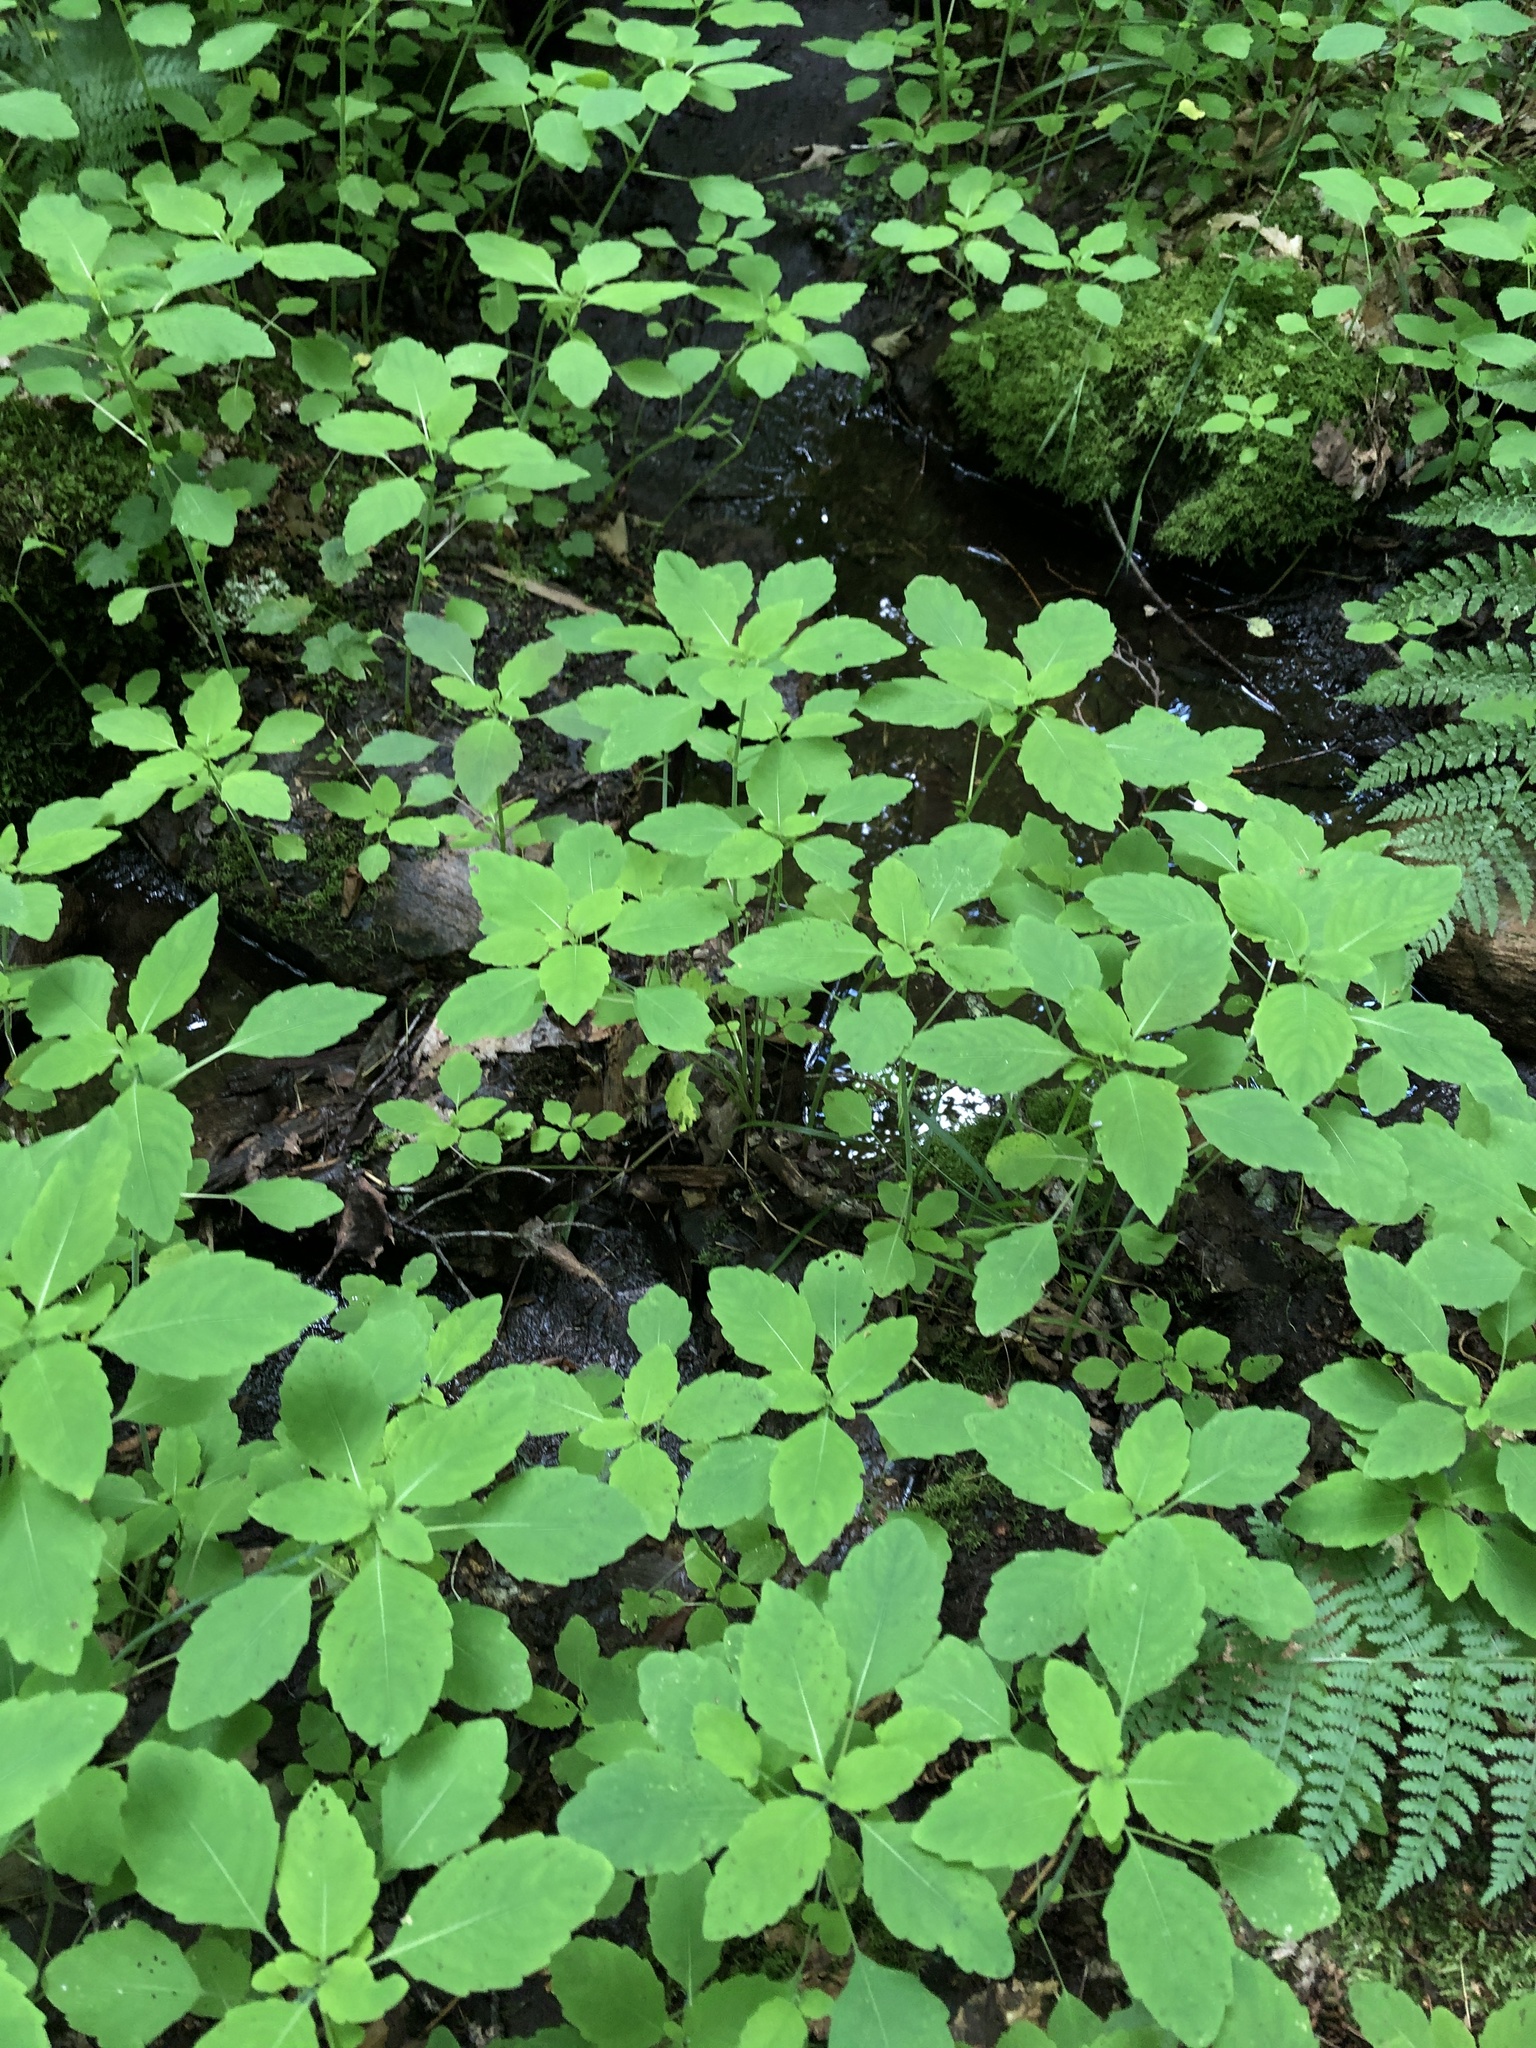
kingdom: Plantae
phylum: Tracheophyta
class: Magnoliopsida
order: Ericales
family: Balsaminaceae
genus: Impatiens
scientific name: Impatiens capensis
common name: Orange balsam
